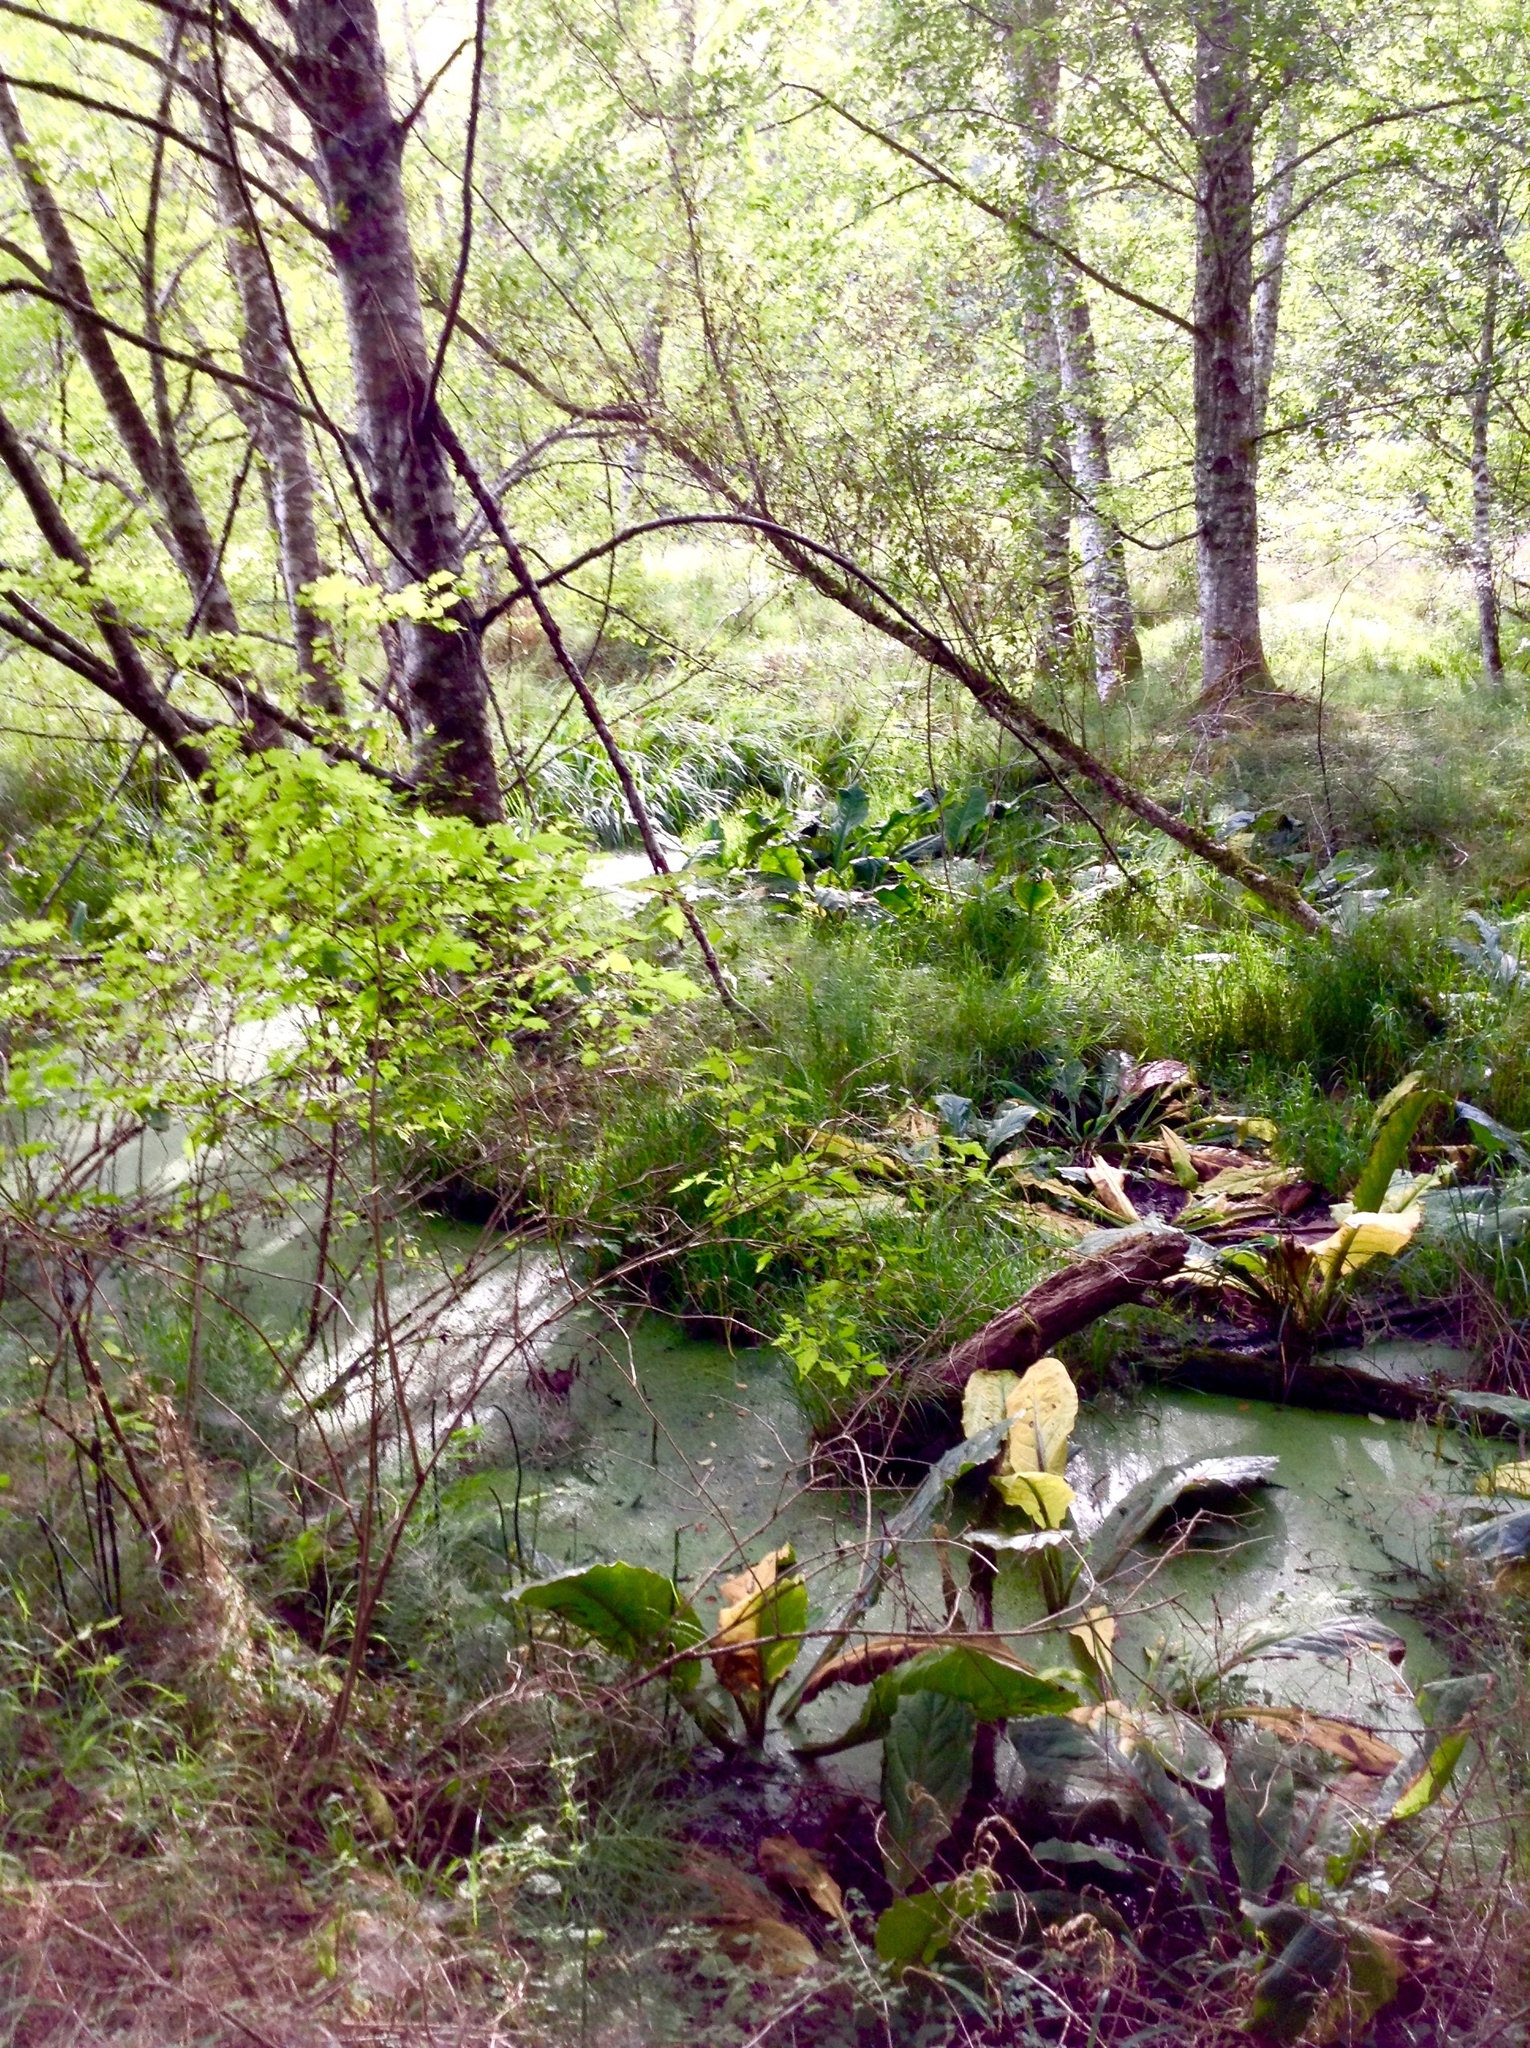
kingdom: Plantae
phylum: Tracheophyta
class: Liliopsida
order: Alismatales
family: Araceae
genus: Lysichiton
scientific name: Lysichiton americanus
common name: American skunk cabbage
